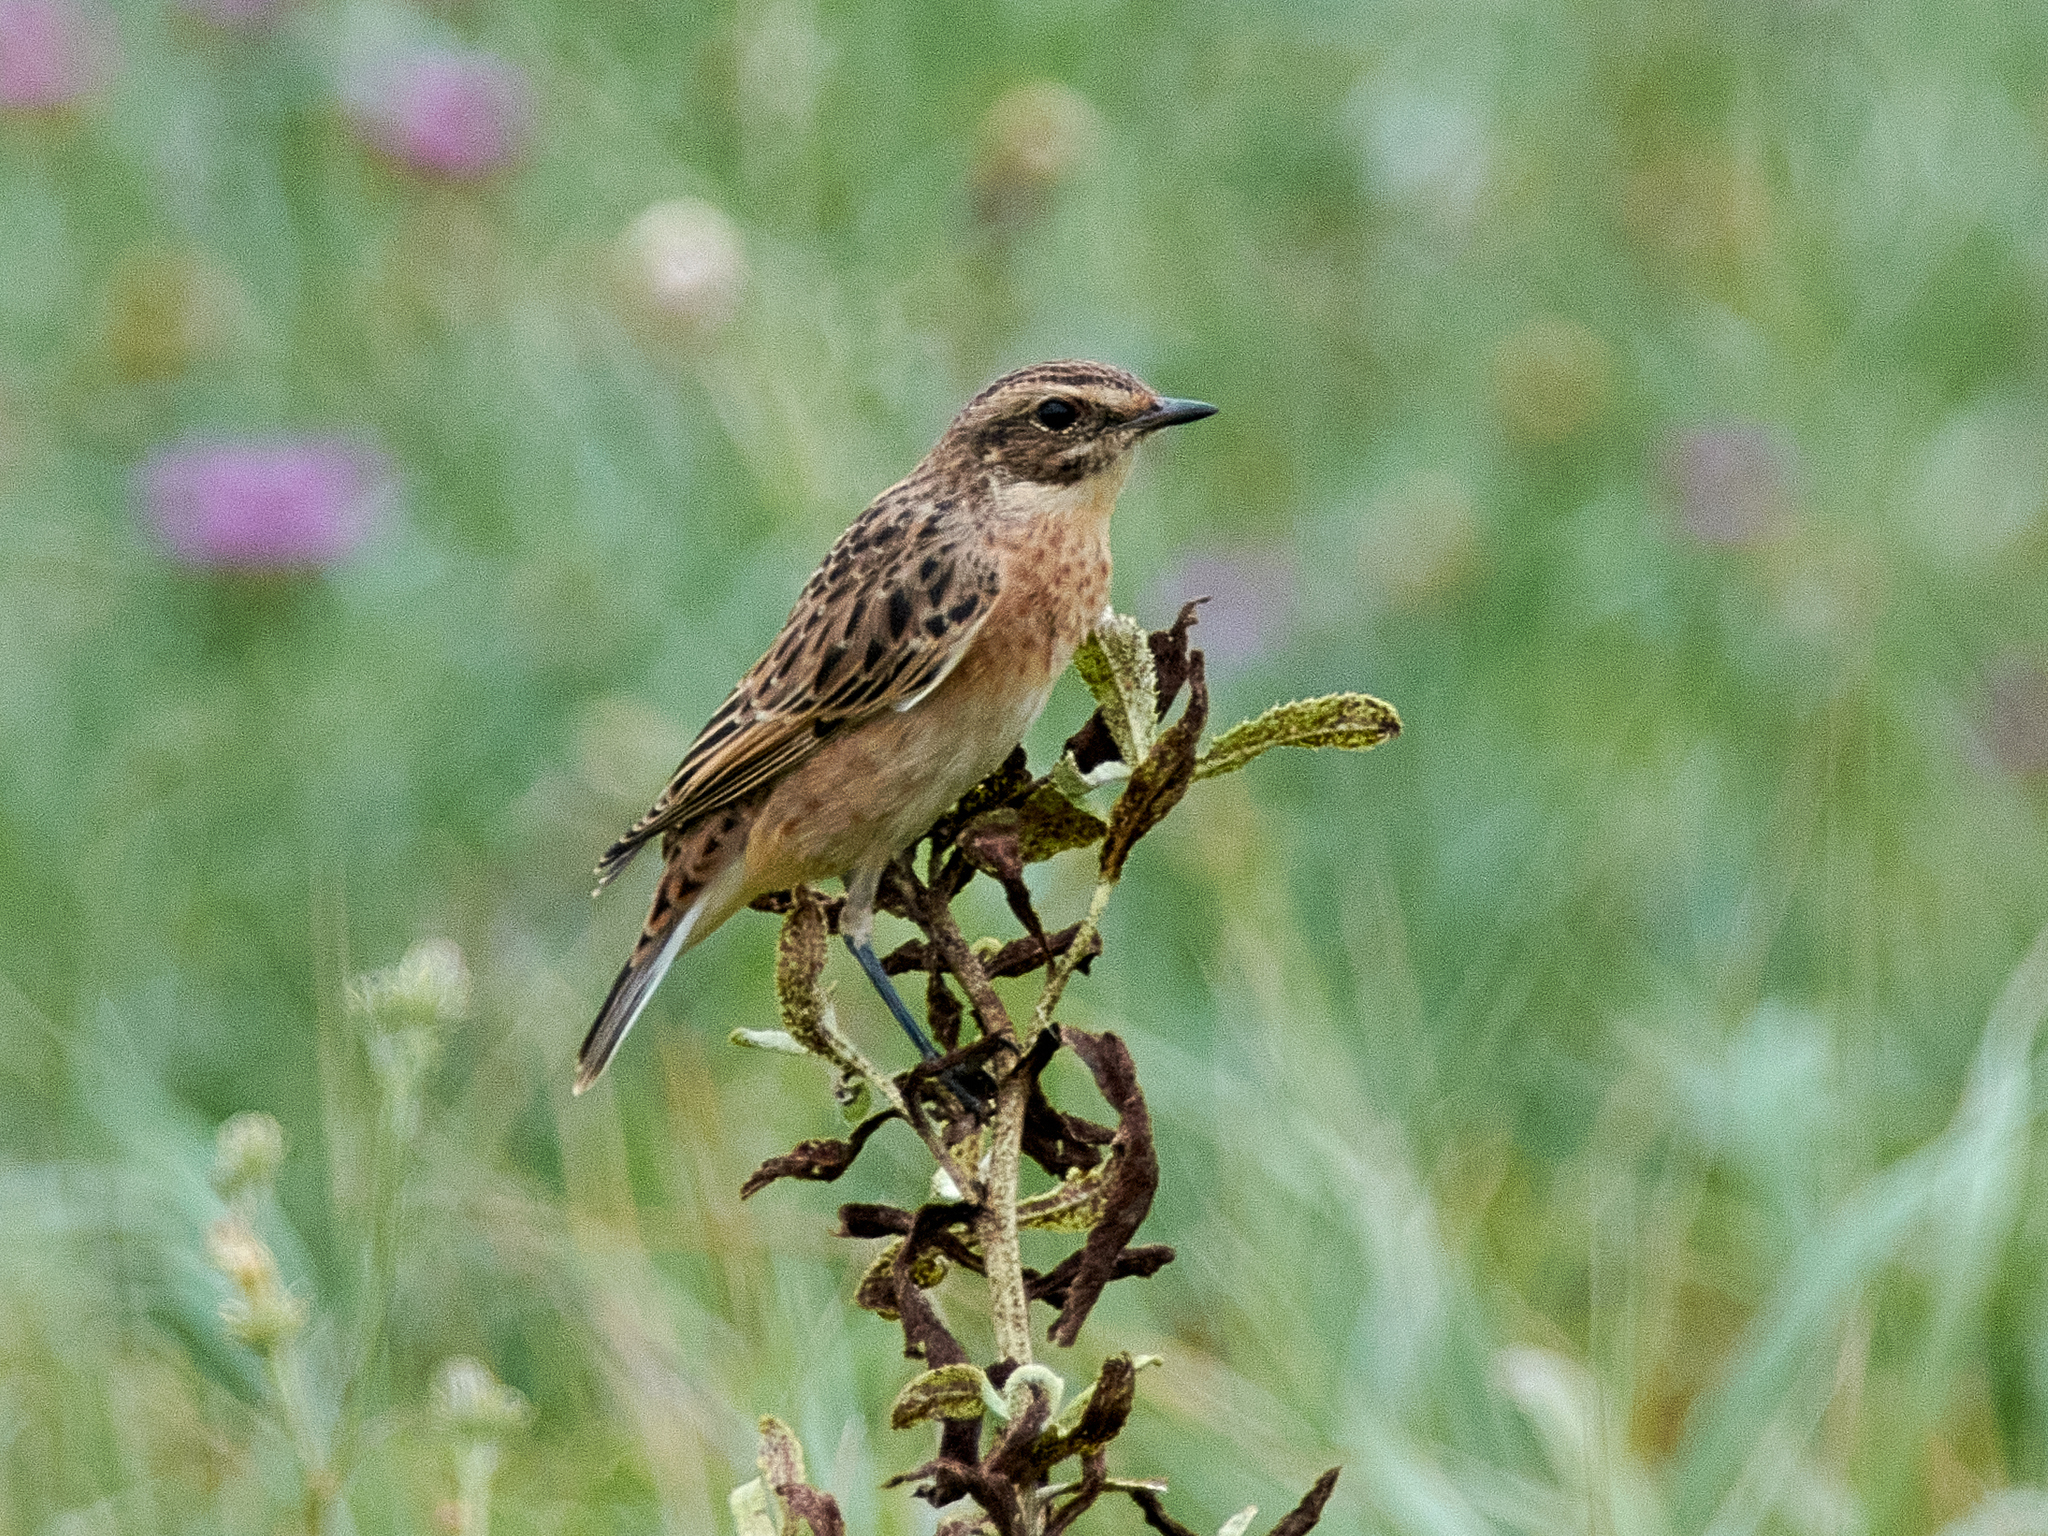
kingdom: Animalia
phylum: Chordata
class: Aves
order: Passeriformes
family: Muscicapidae
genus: Saxicola
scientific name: Saxicola rubetra
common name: Whinchat
